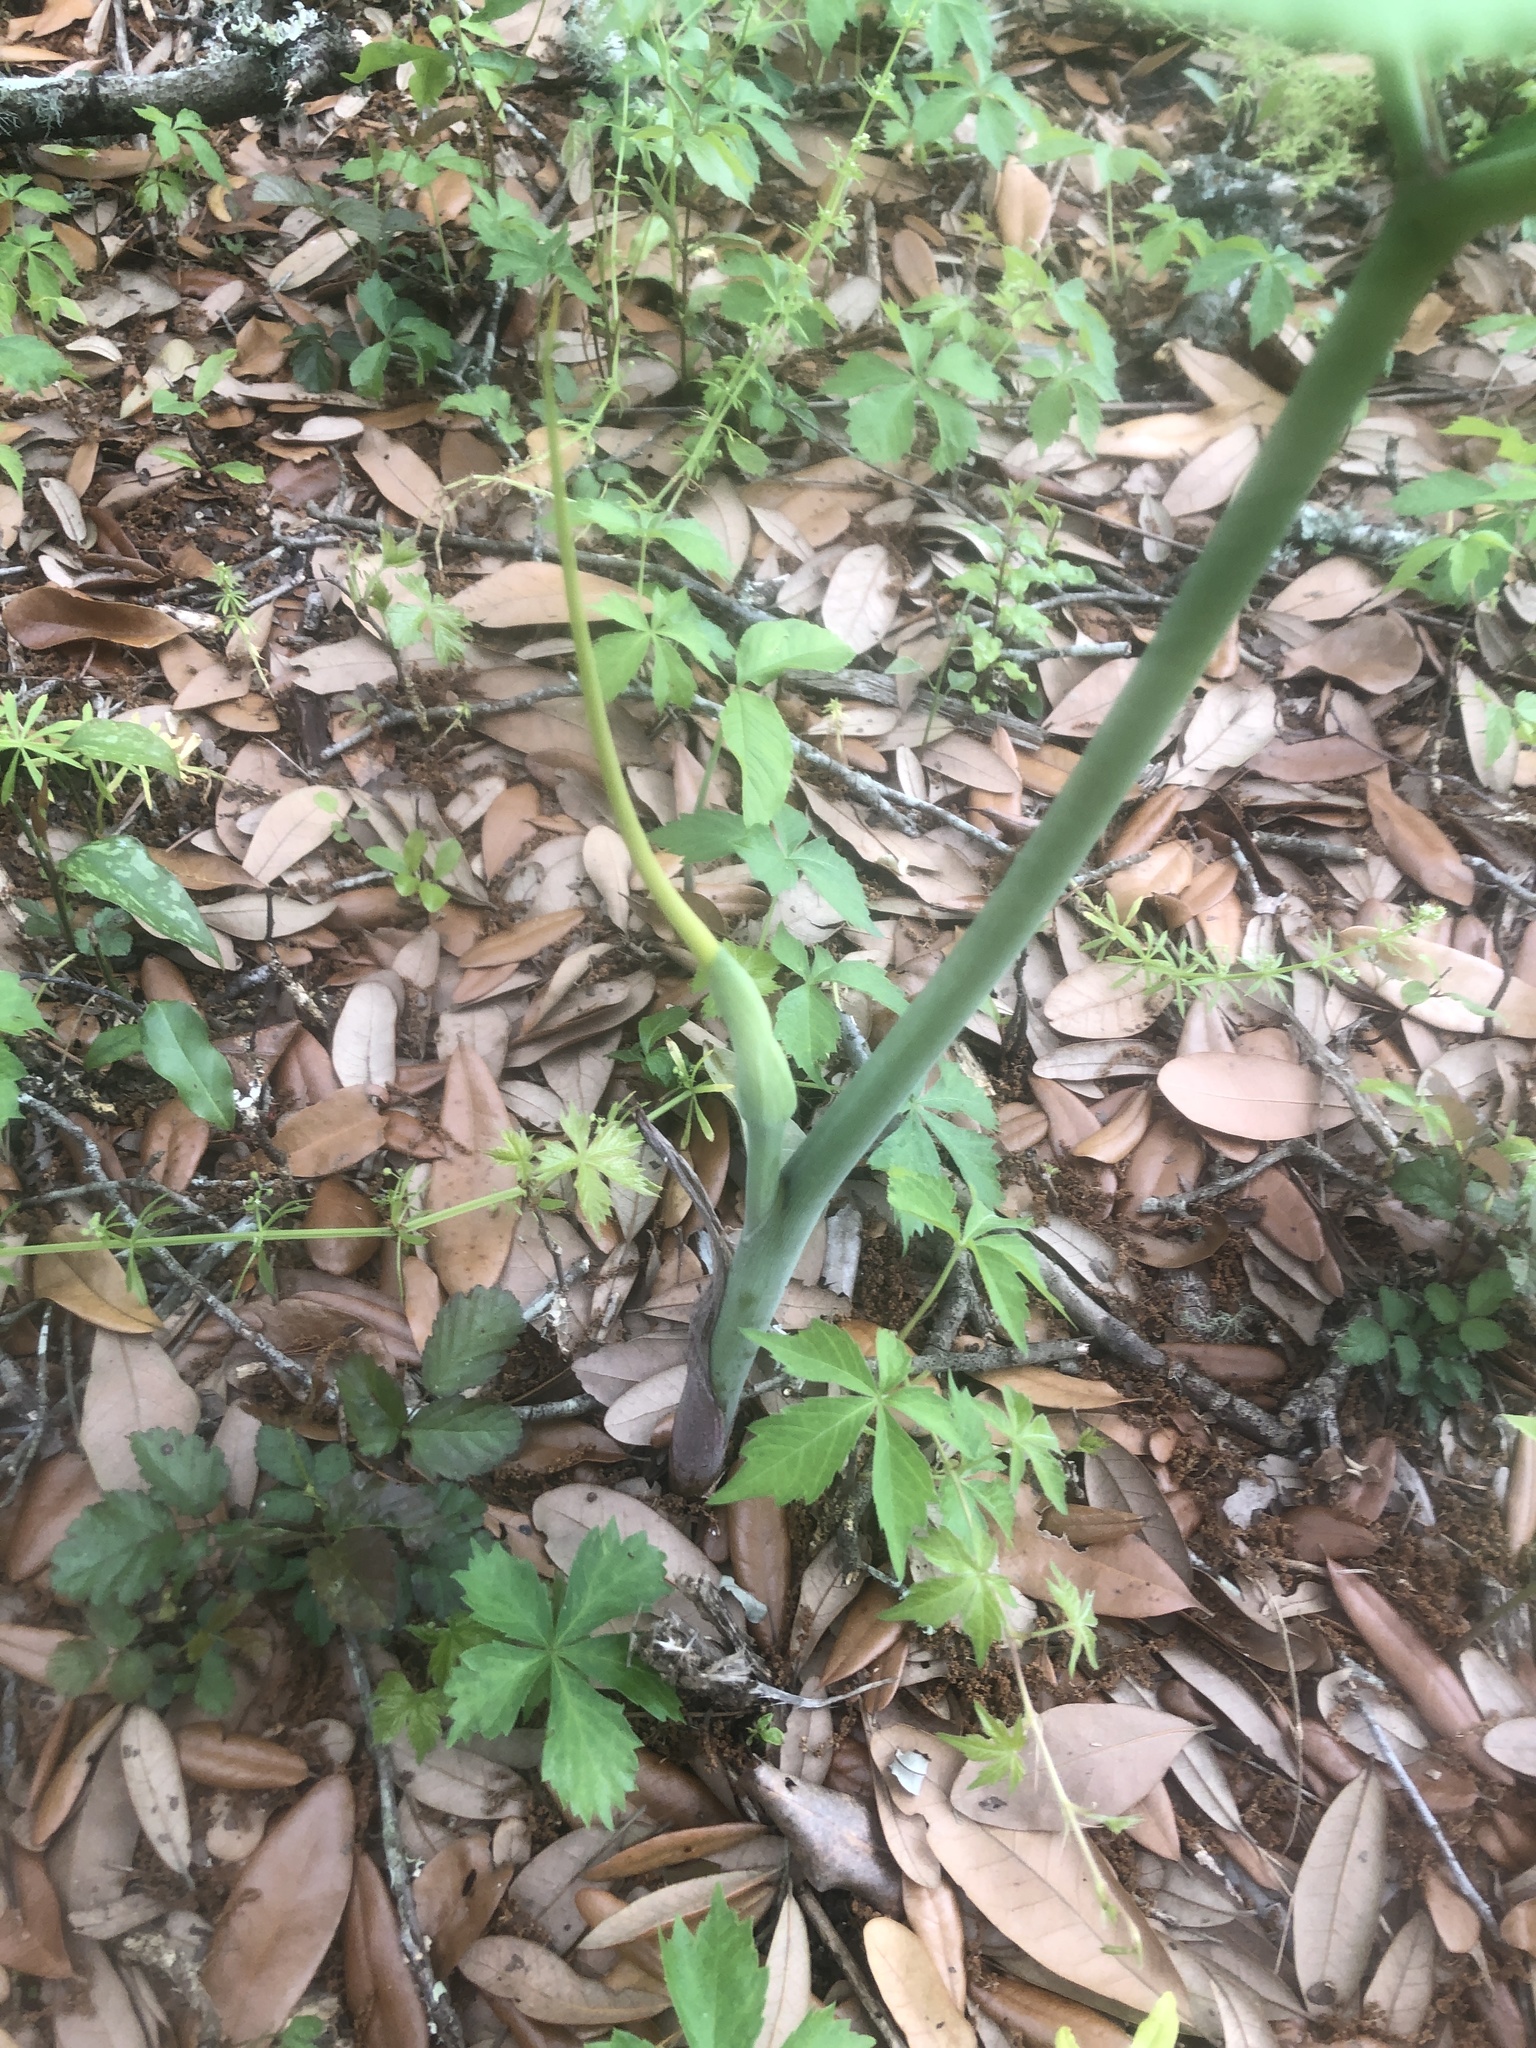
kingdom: Plantae
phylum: Tracheophyta
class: Liliopsida
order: Alismatales
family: Araceae
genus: Arisaema
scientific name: Arisaema dracontium
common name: Dragon-arum
